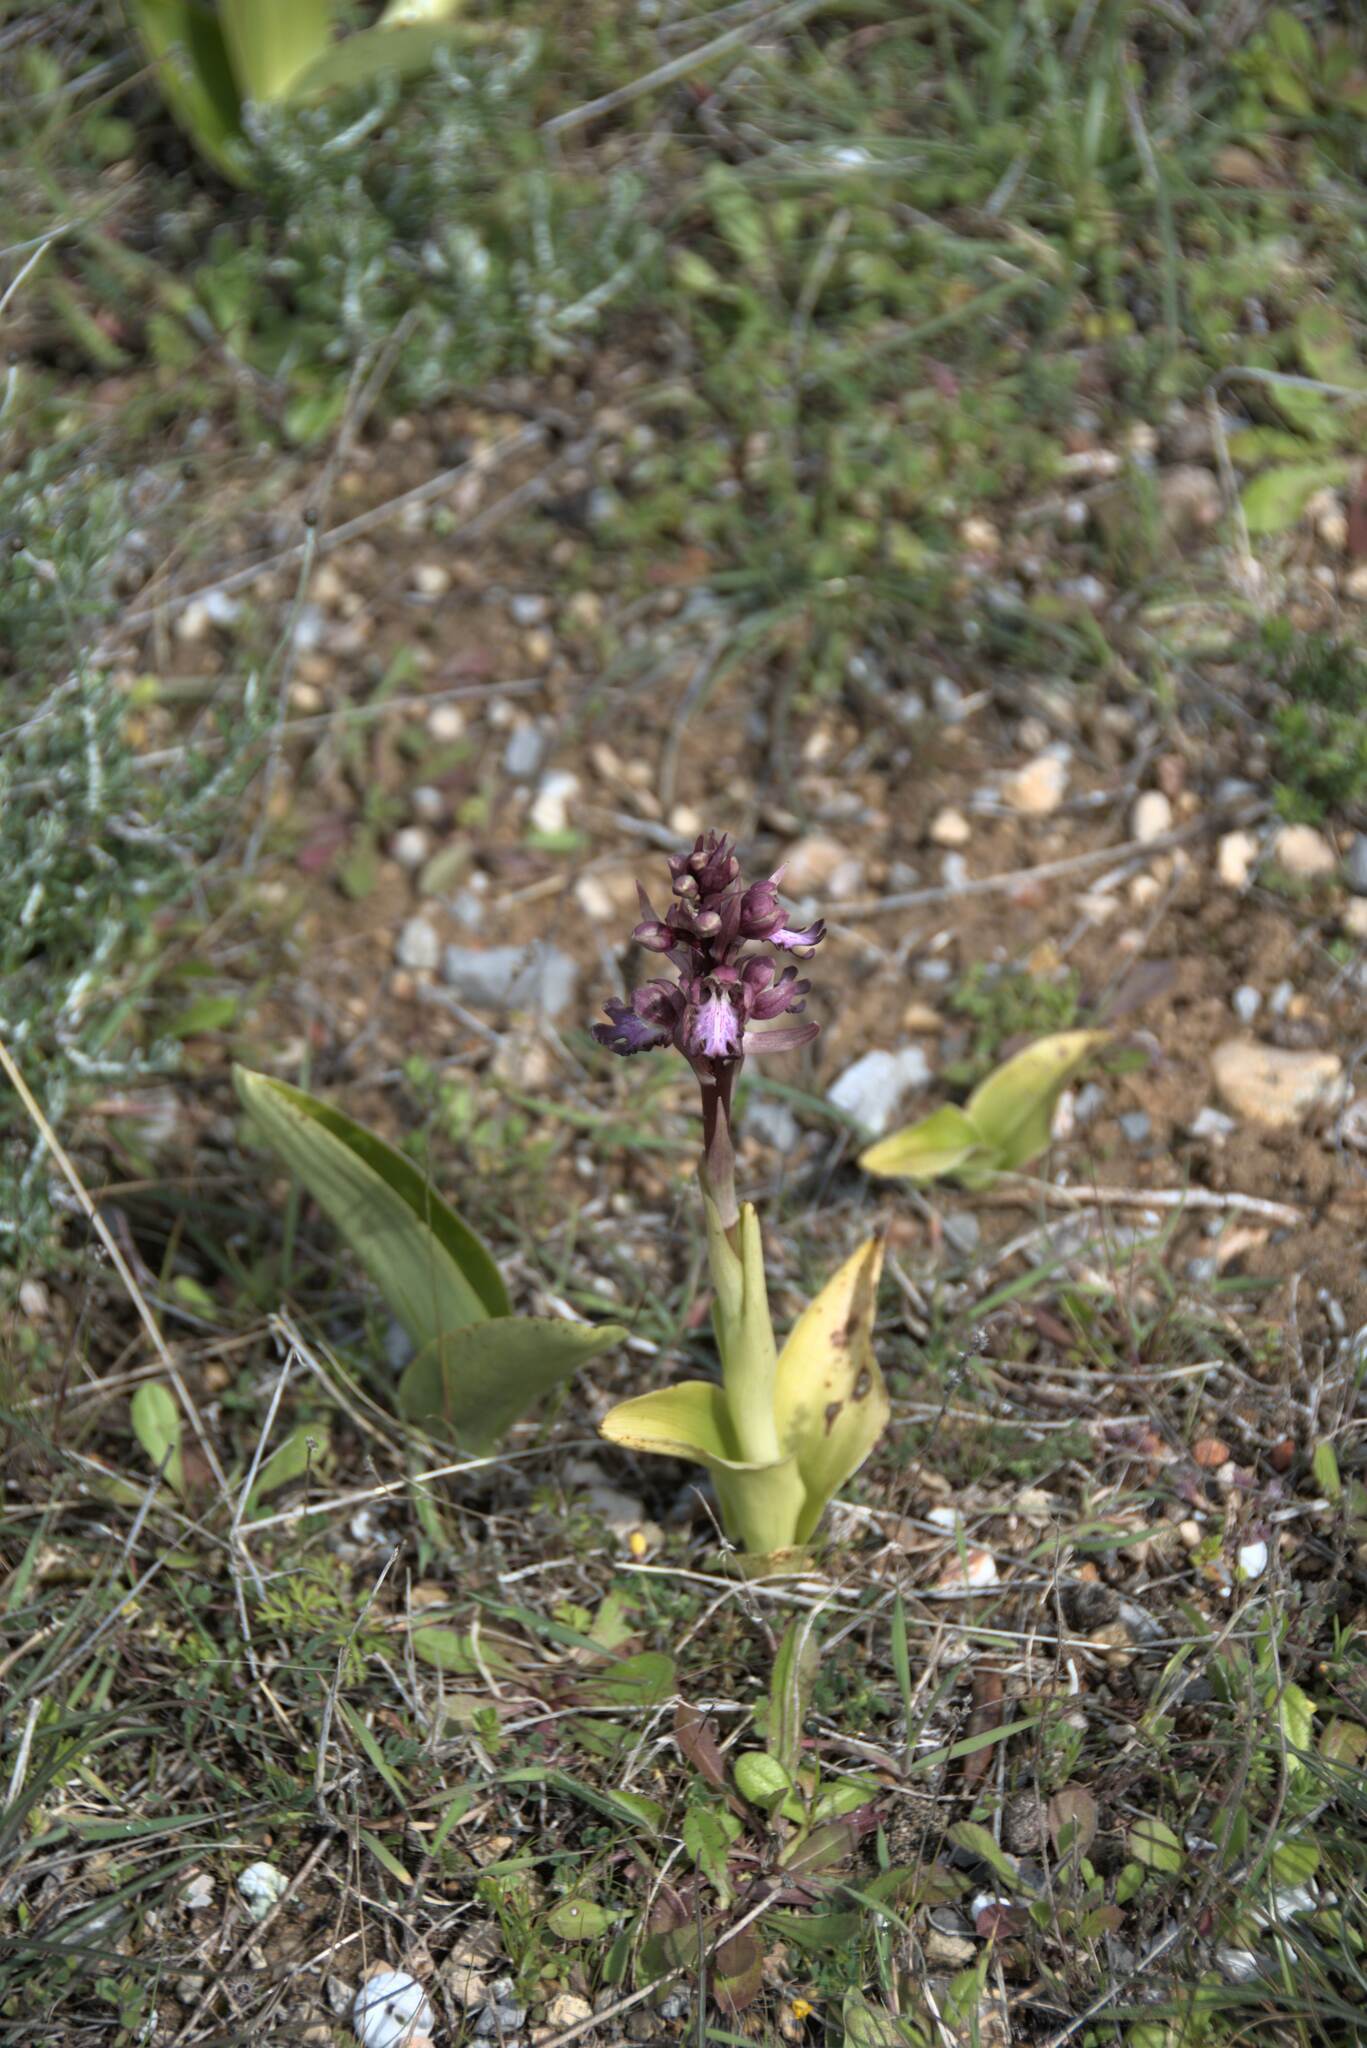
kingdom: Plantae
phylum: Tracheophyta
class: Liliopsida
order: Asparagales
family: Orchidaceae
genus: Himantoglossum
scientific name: Himantoglossum robertianum
